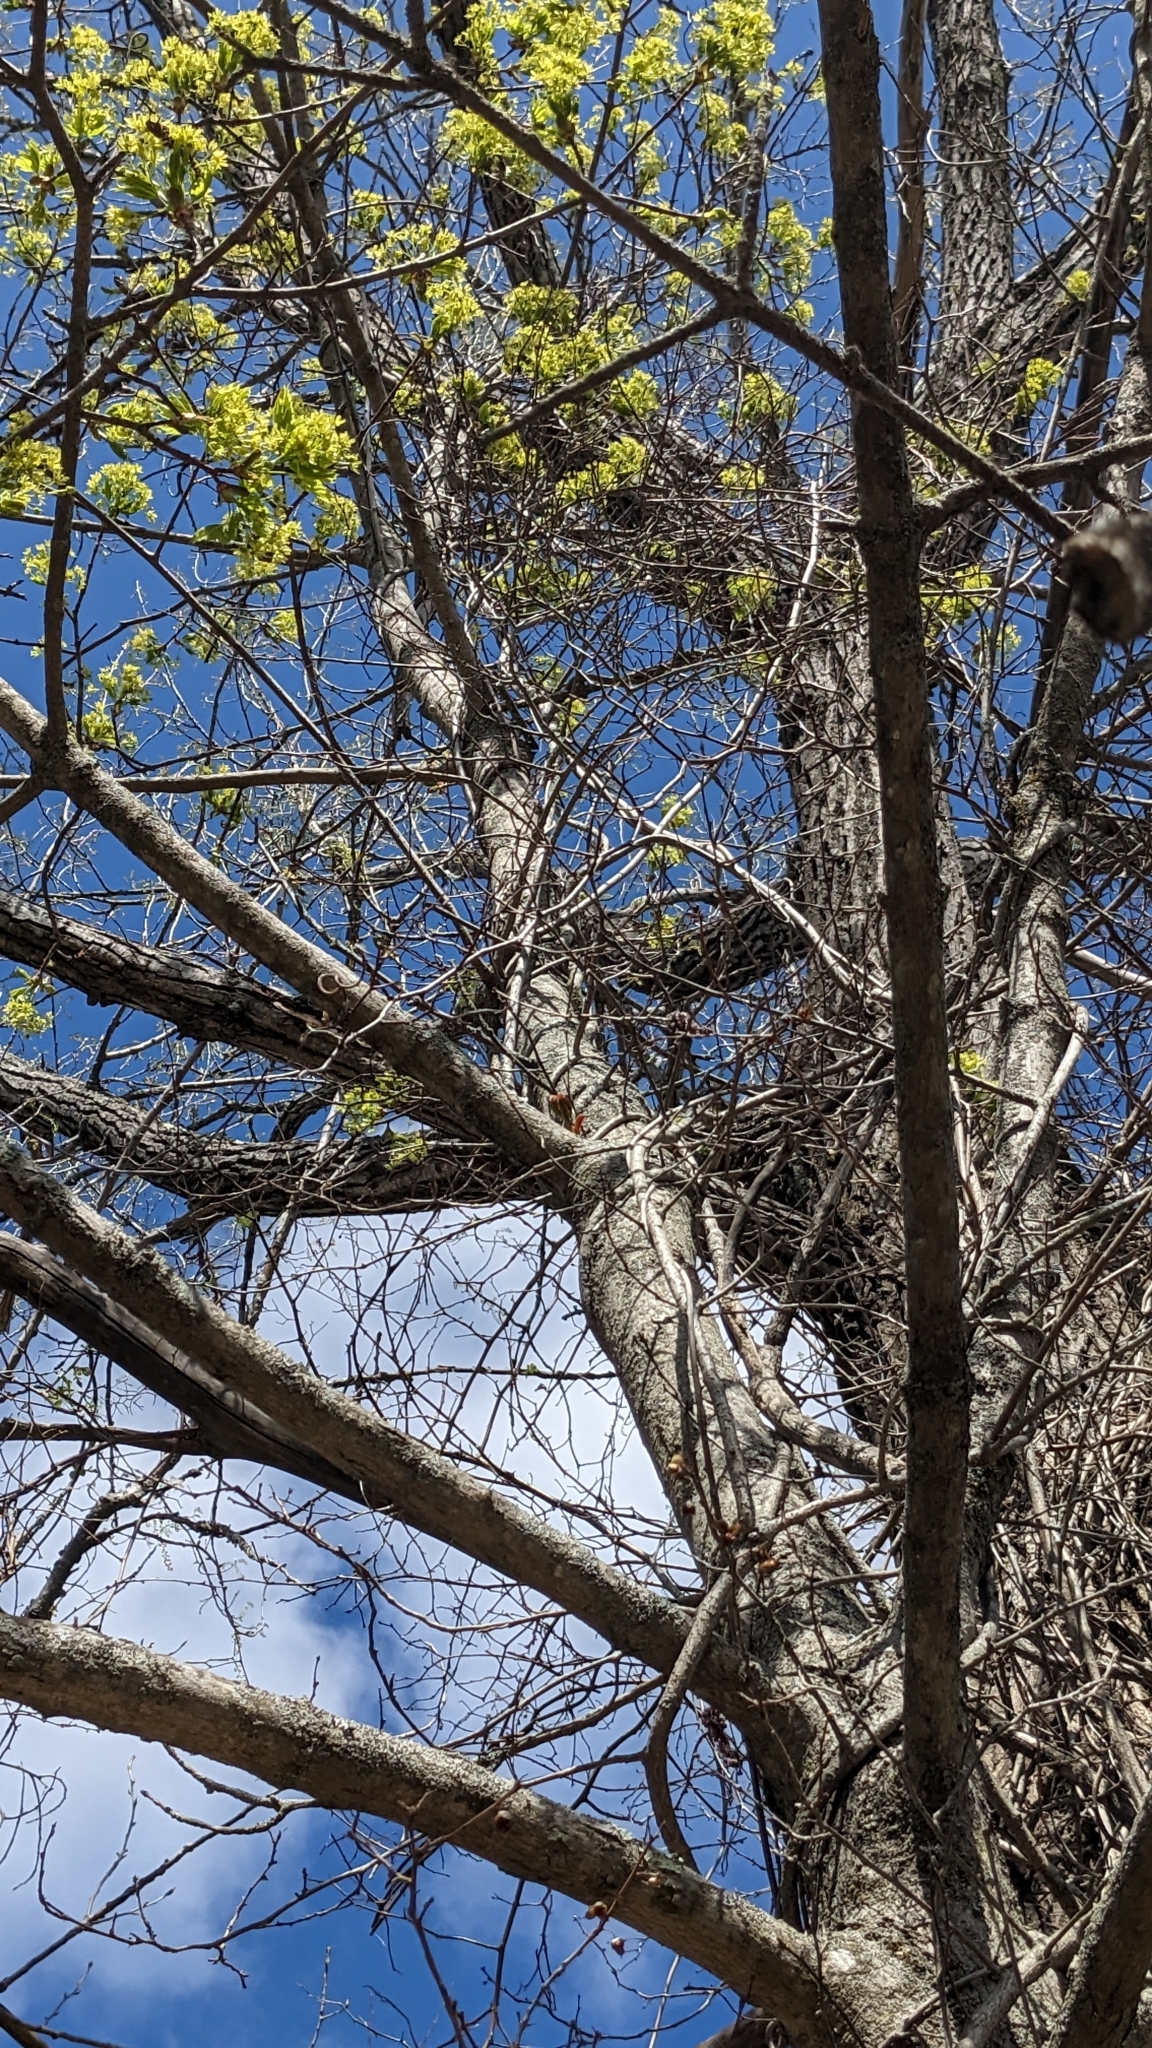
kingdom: Plantae
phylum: Tracheophyta
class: Magnoliopsida
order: Sapindales
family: Sapindaceae
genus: Acer
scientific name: Acer platanoides
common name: Norway maple
